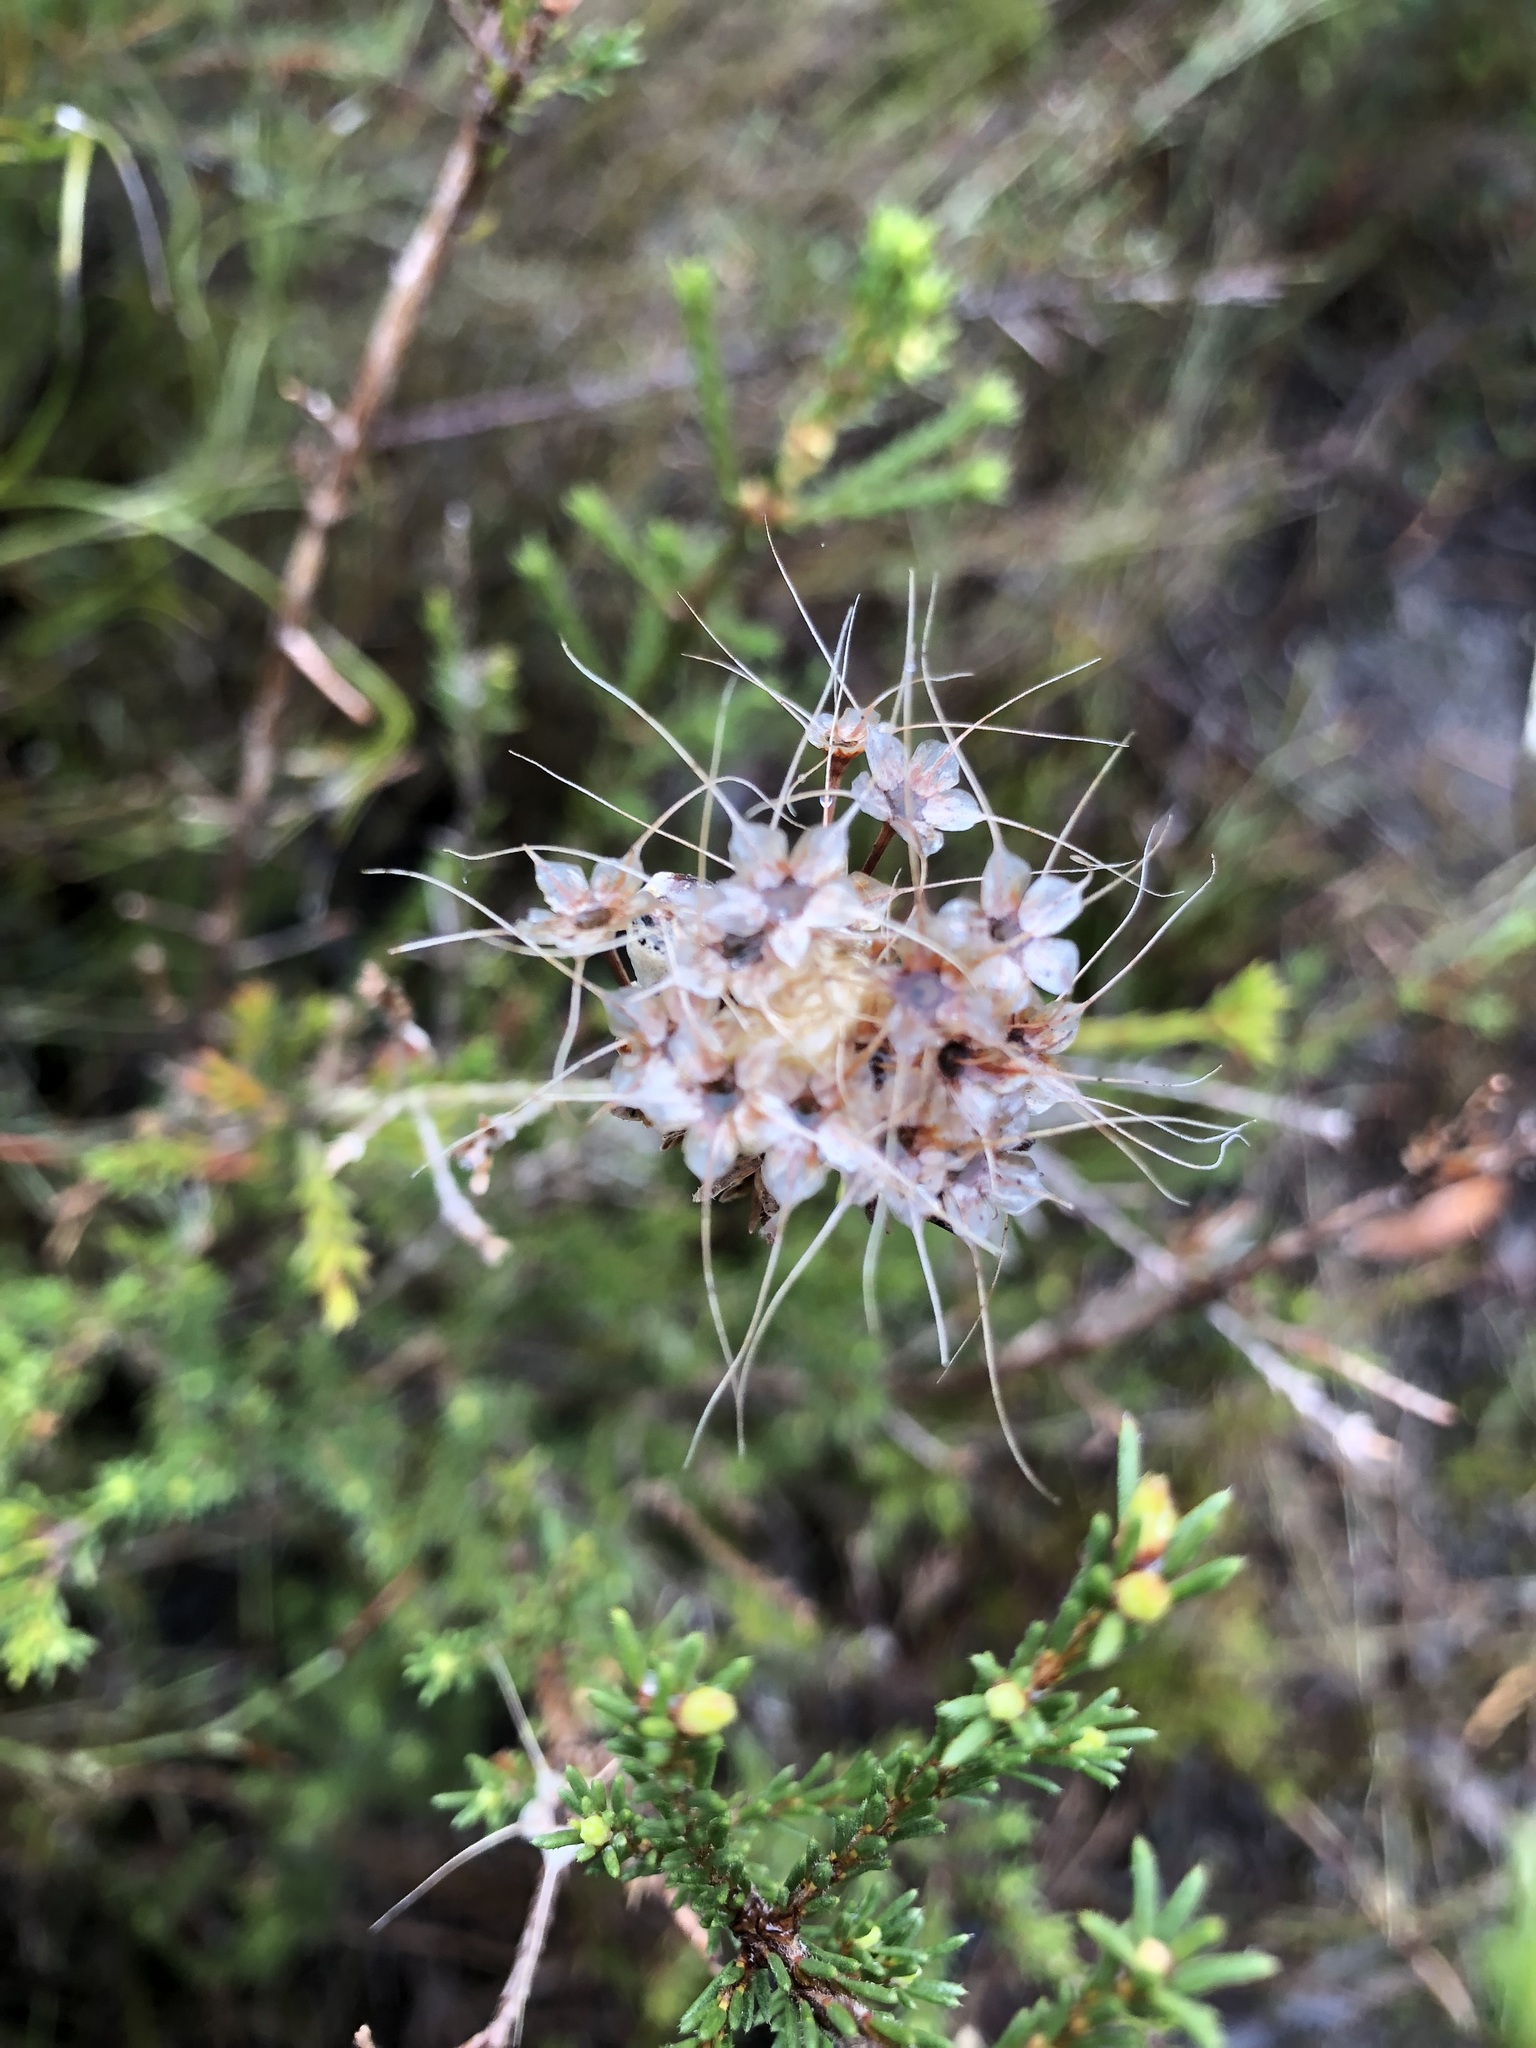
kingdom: Plantae
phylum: Tracheophyta
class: Magnoliopsida
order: Myrtales
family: Myrtaceae
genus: Calytrix
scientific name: Calytrix tetragona
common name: Common fringe myrtle
